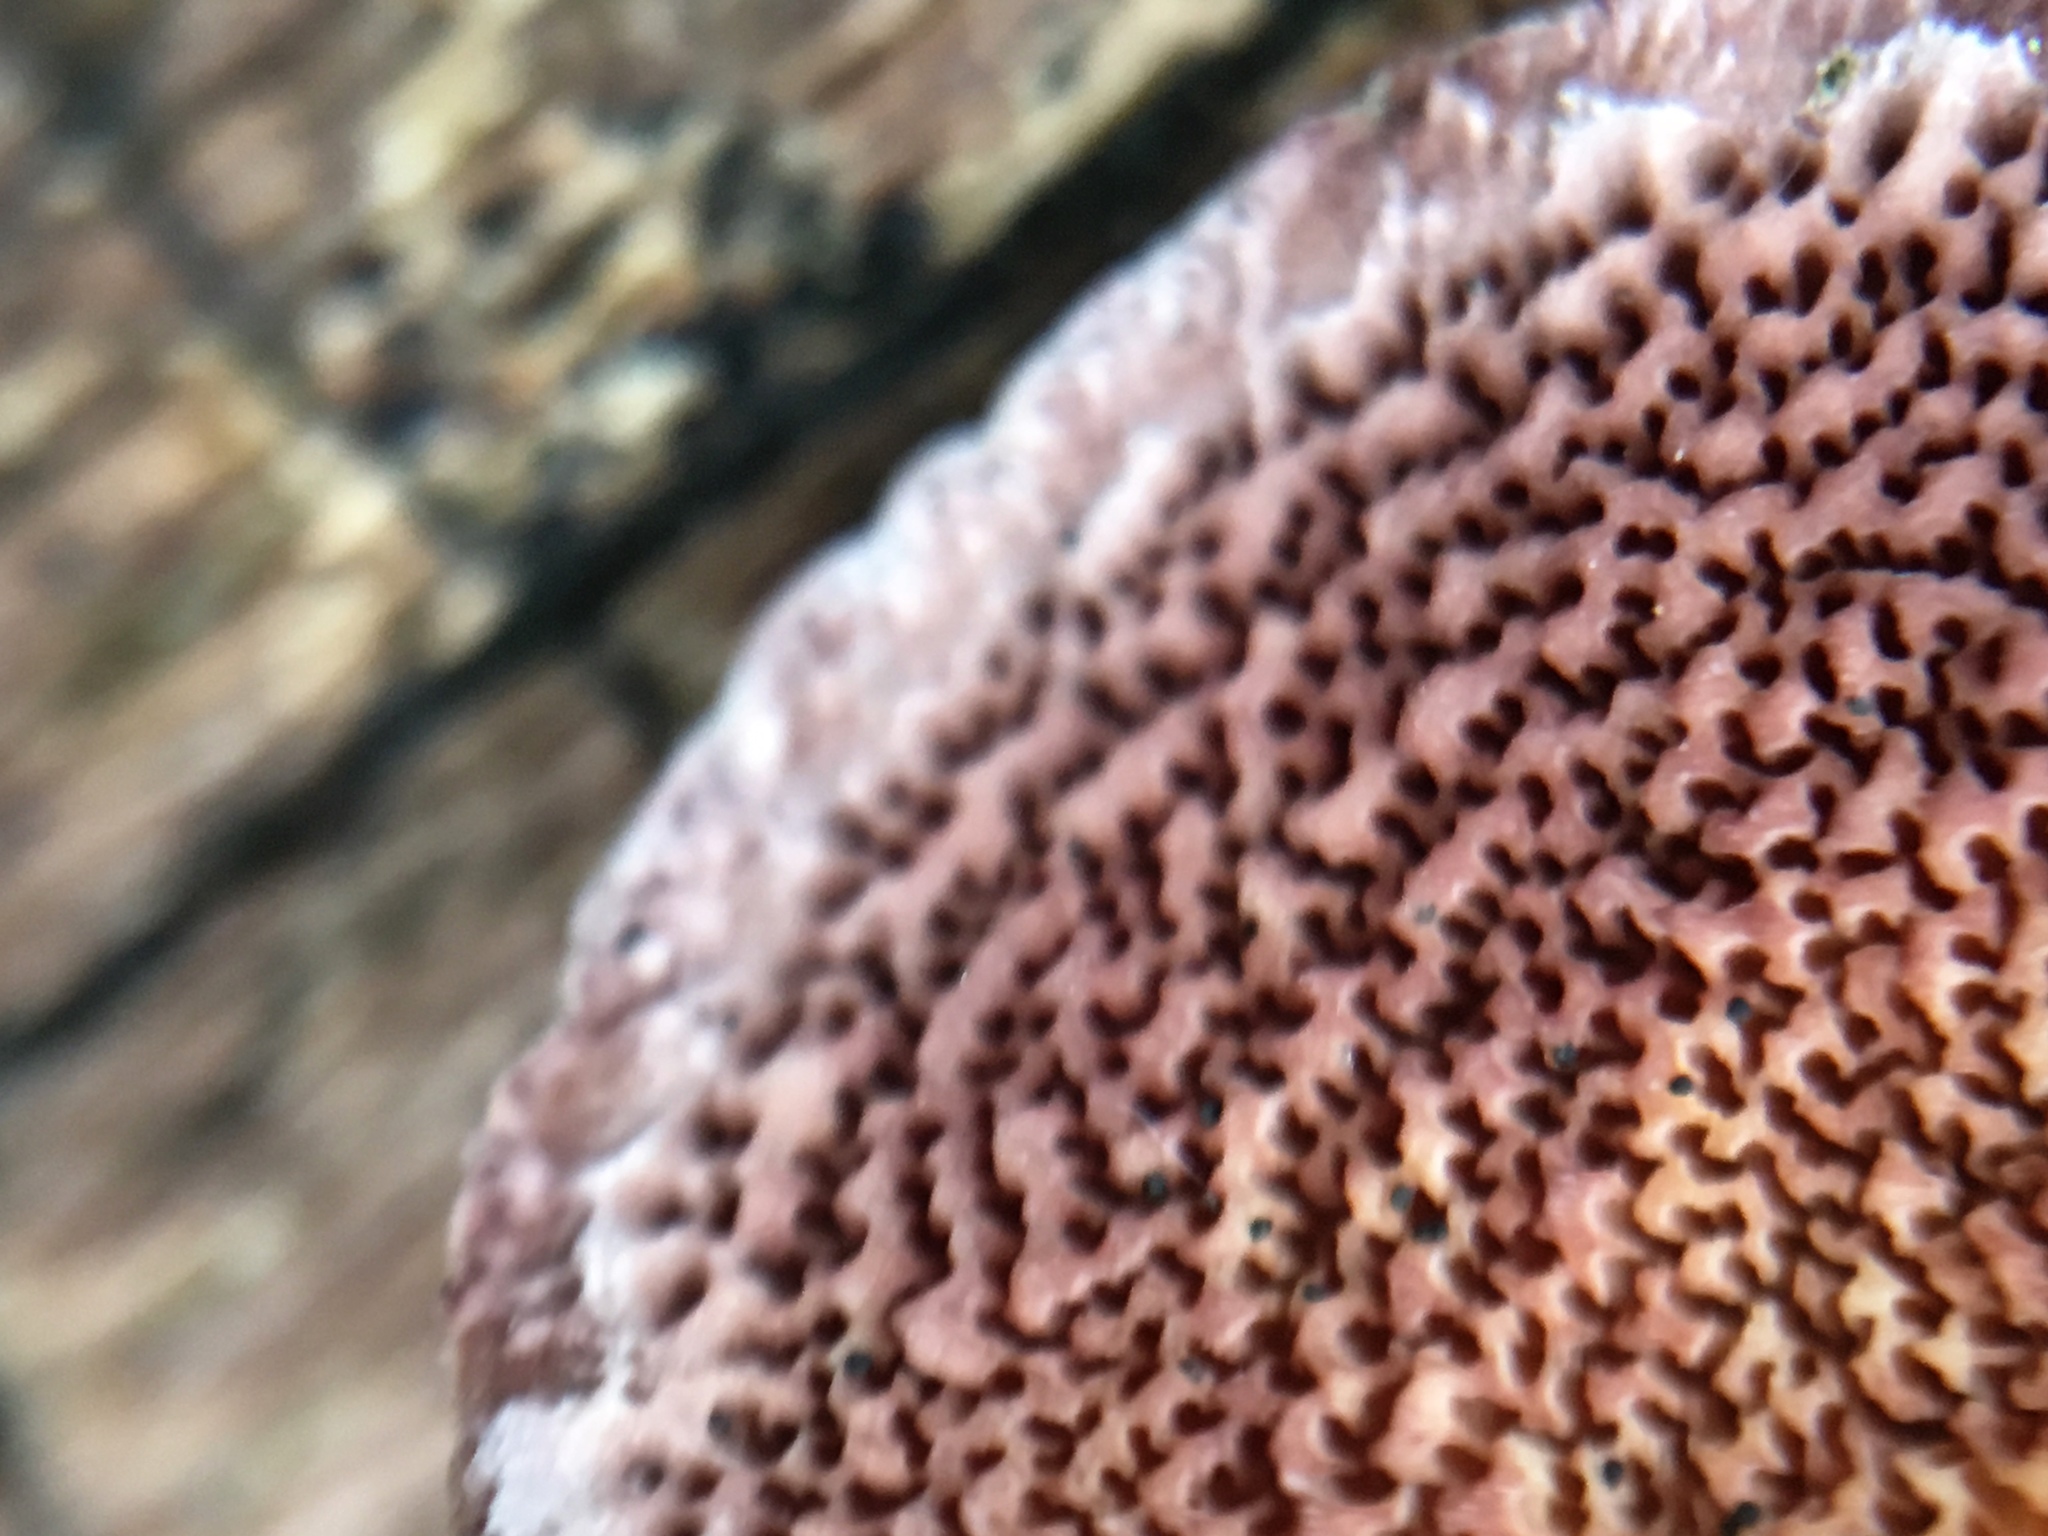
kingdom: Fungi
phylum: Basidiomycota
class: Agaricomycetes
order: Hymenochaetales
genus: Trichaptum
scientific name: Trichaptum biforme
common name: Violet-toothed polypore
